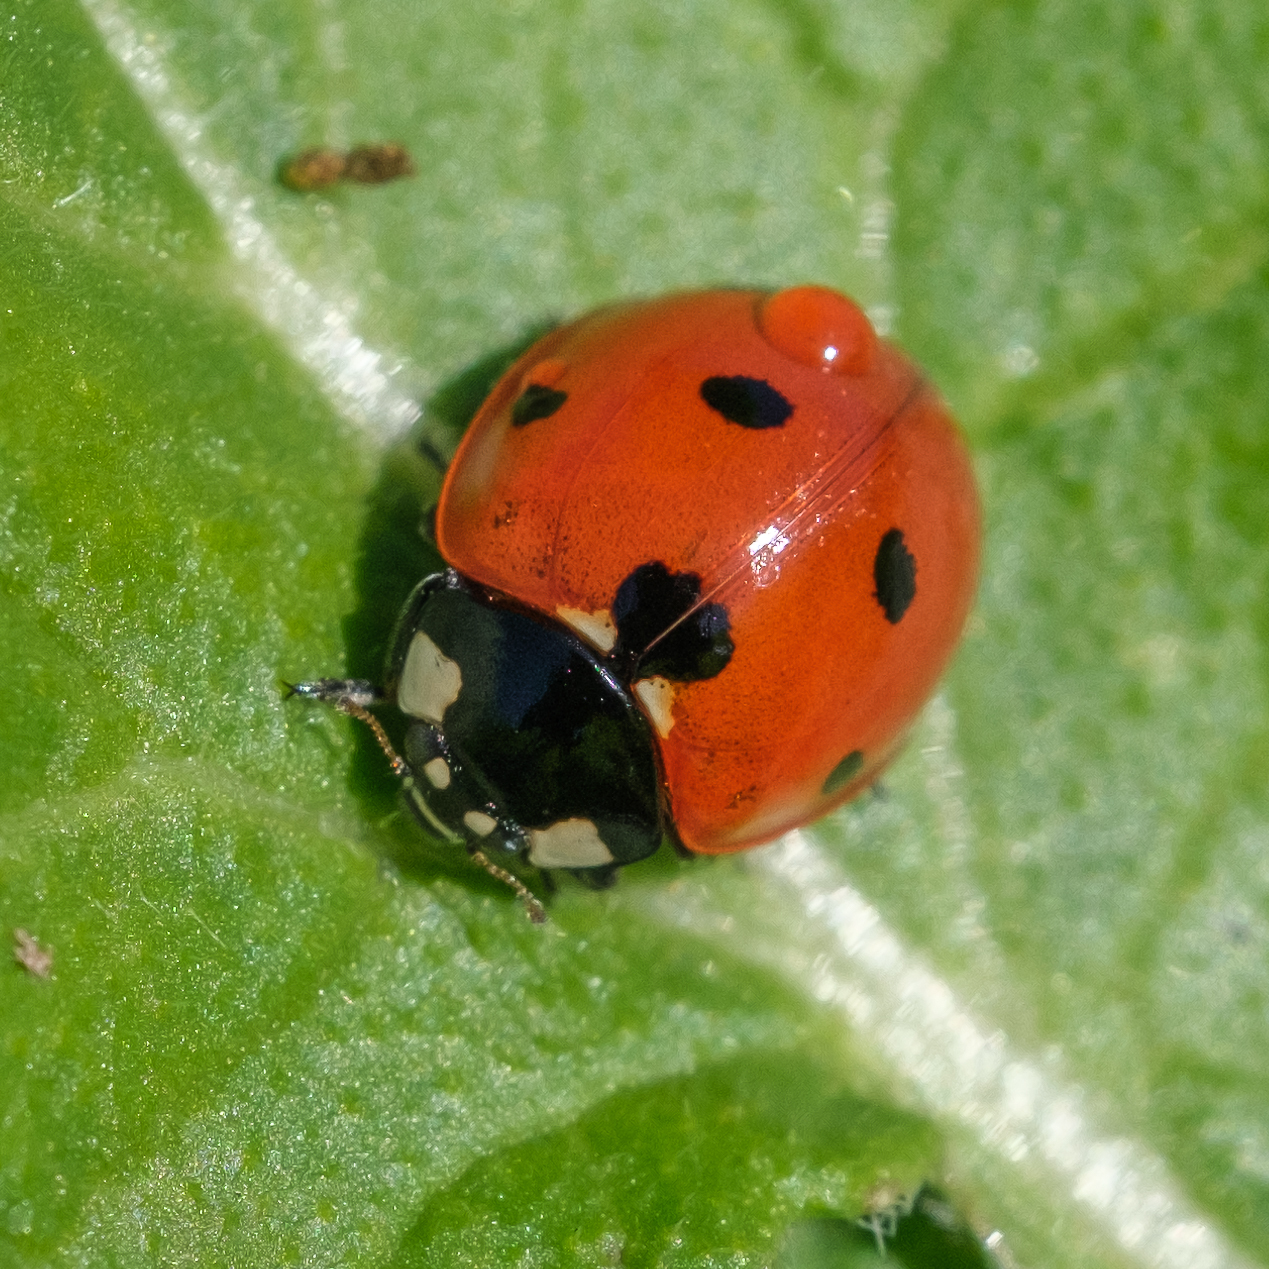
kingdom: Animalia
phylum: Arthropoda
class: Insecta
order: Coleoptera
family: Coccinellidae
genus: Coccinella
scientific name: Coccinella septempunctata
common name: Sevenspotted lady beetle
